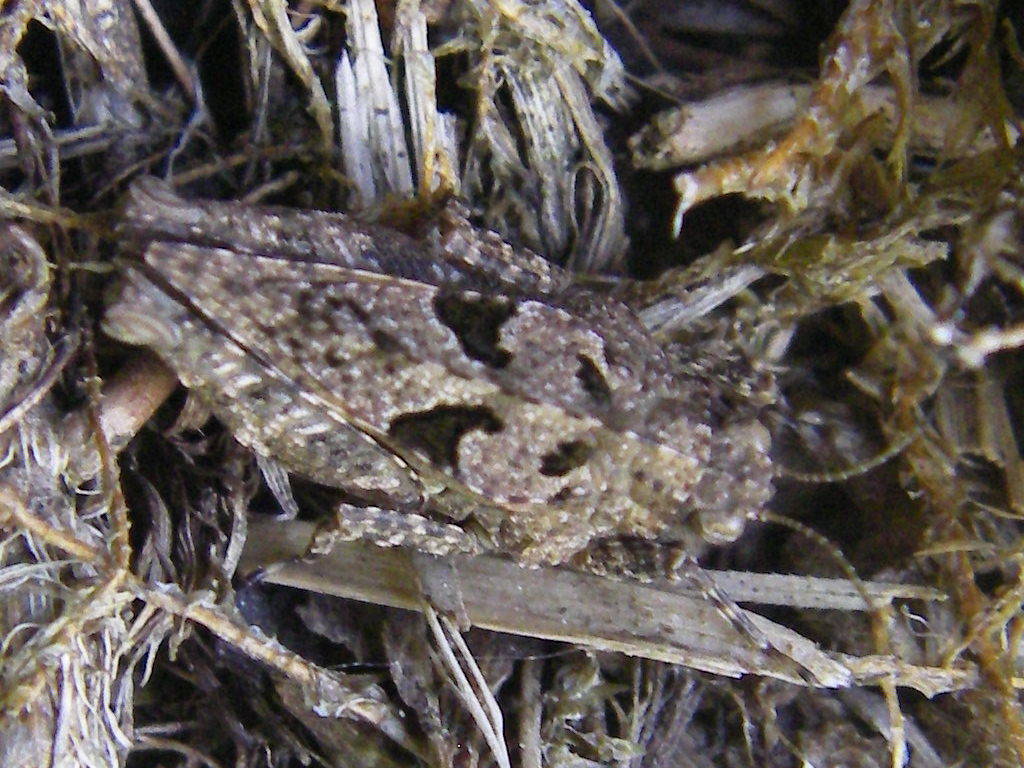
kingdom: Animalia
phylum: Arthropoda
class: Insecta
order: Orthoptera
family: Tetrigidae
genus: Tetrix
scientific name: Tetrix tenuicornis
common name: Long-horned groundhopper
